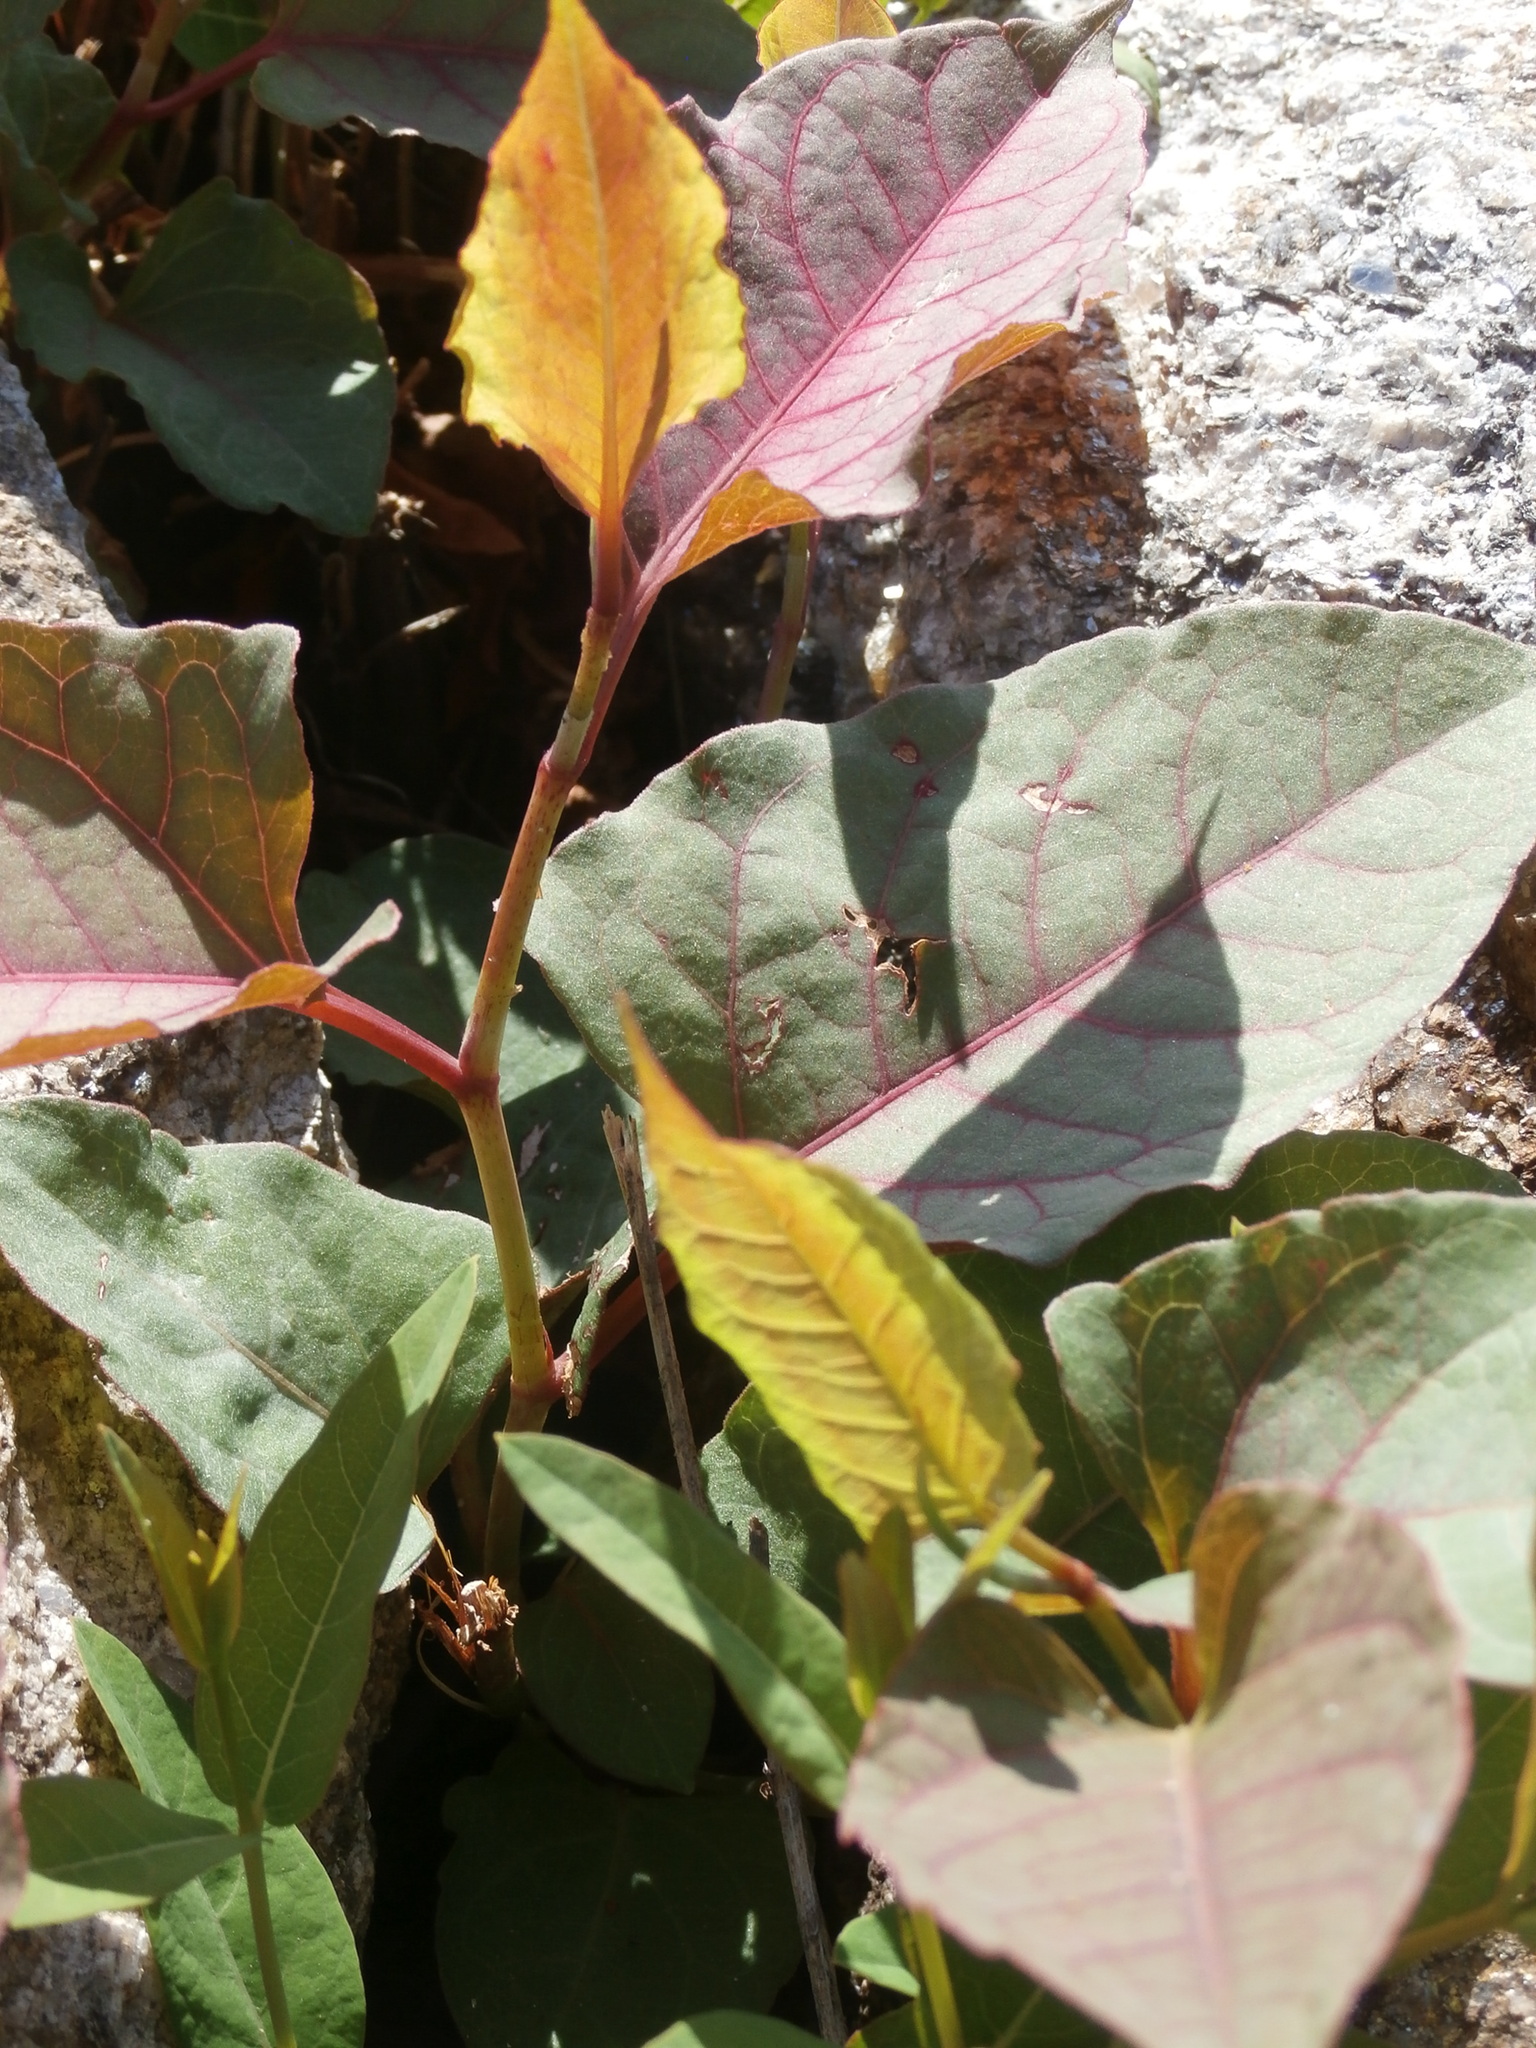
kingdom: Plantae
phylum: Tracheophyta
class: Magnoliopsida
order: Caryophyllales
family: Polygonaceae
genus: Reynoutria
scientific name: Reynoutria japonica
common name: Japanese knotweed
